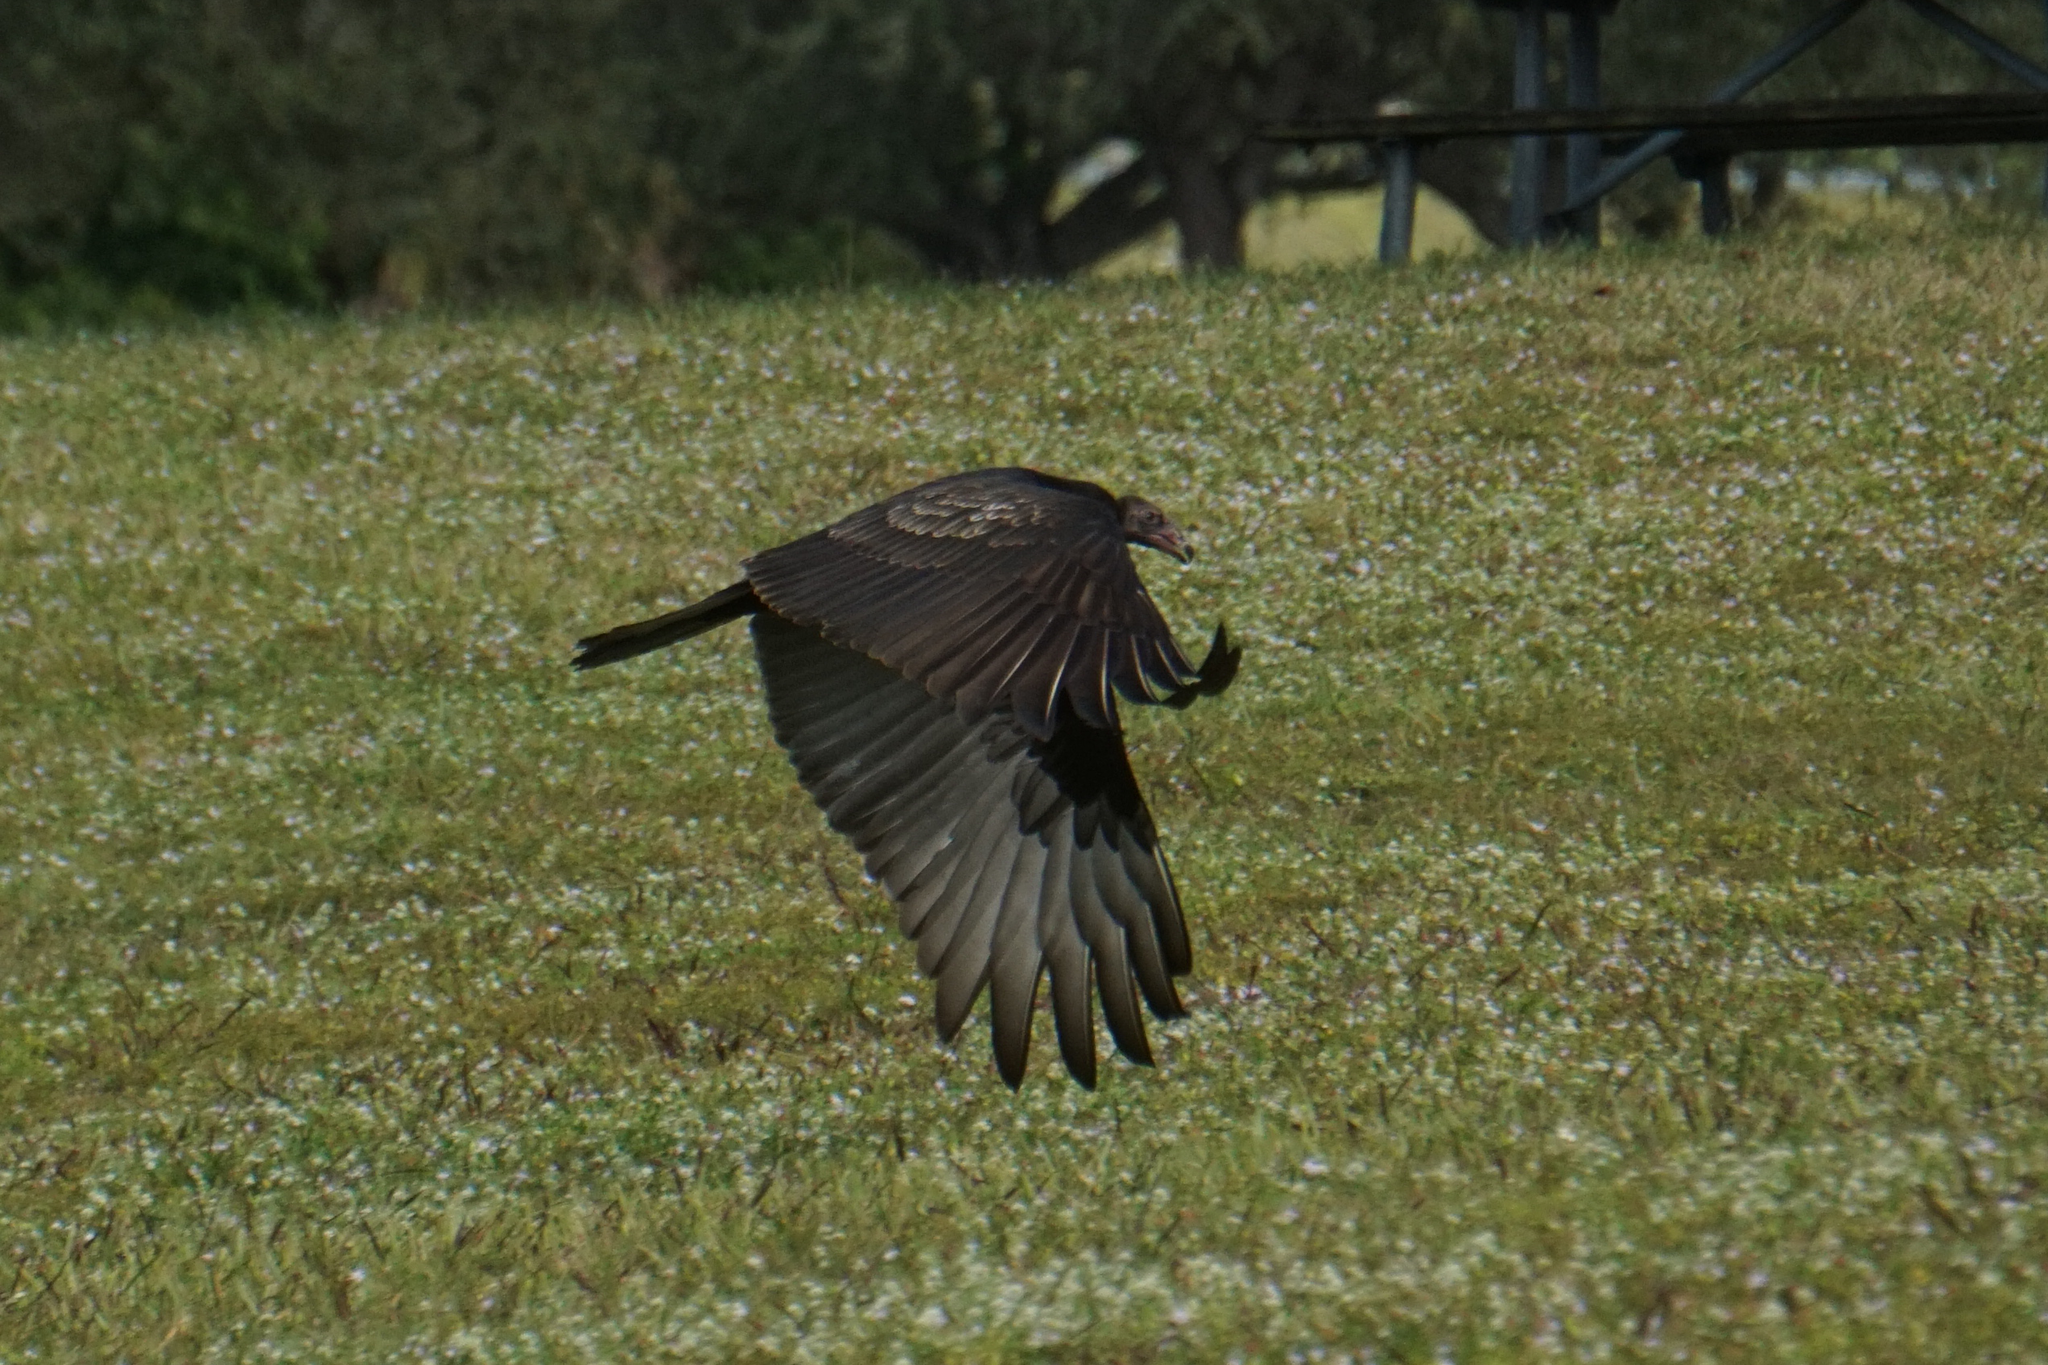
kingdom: Animalia
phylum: Chordata
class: Aves
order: Accipitriformes
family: Cathartidae
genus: Cathartes
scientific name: Cathartes aura
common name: Turkey vulture
